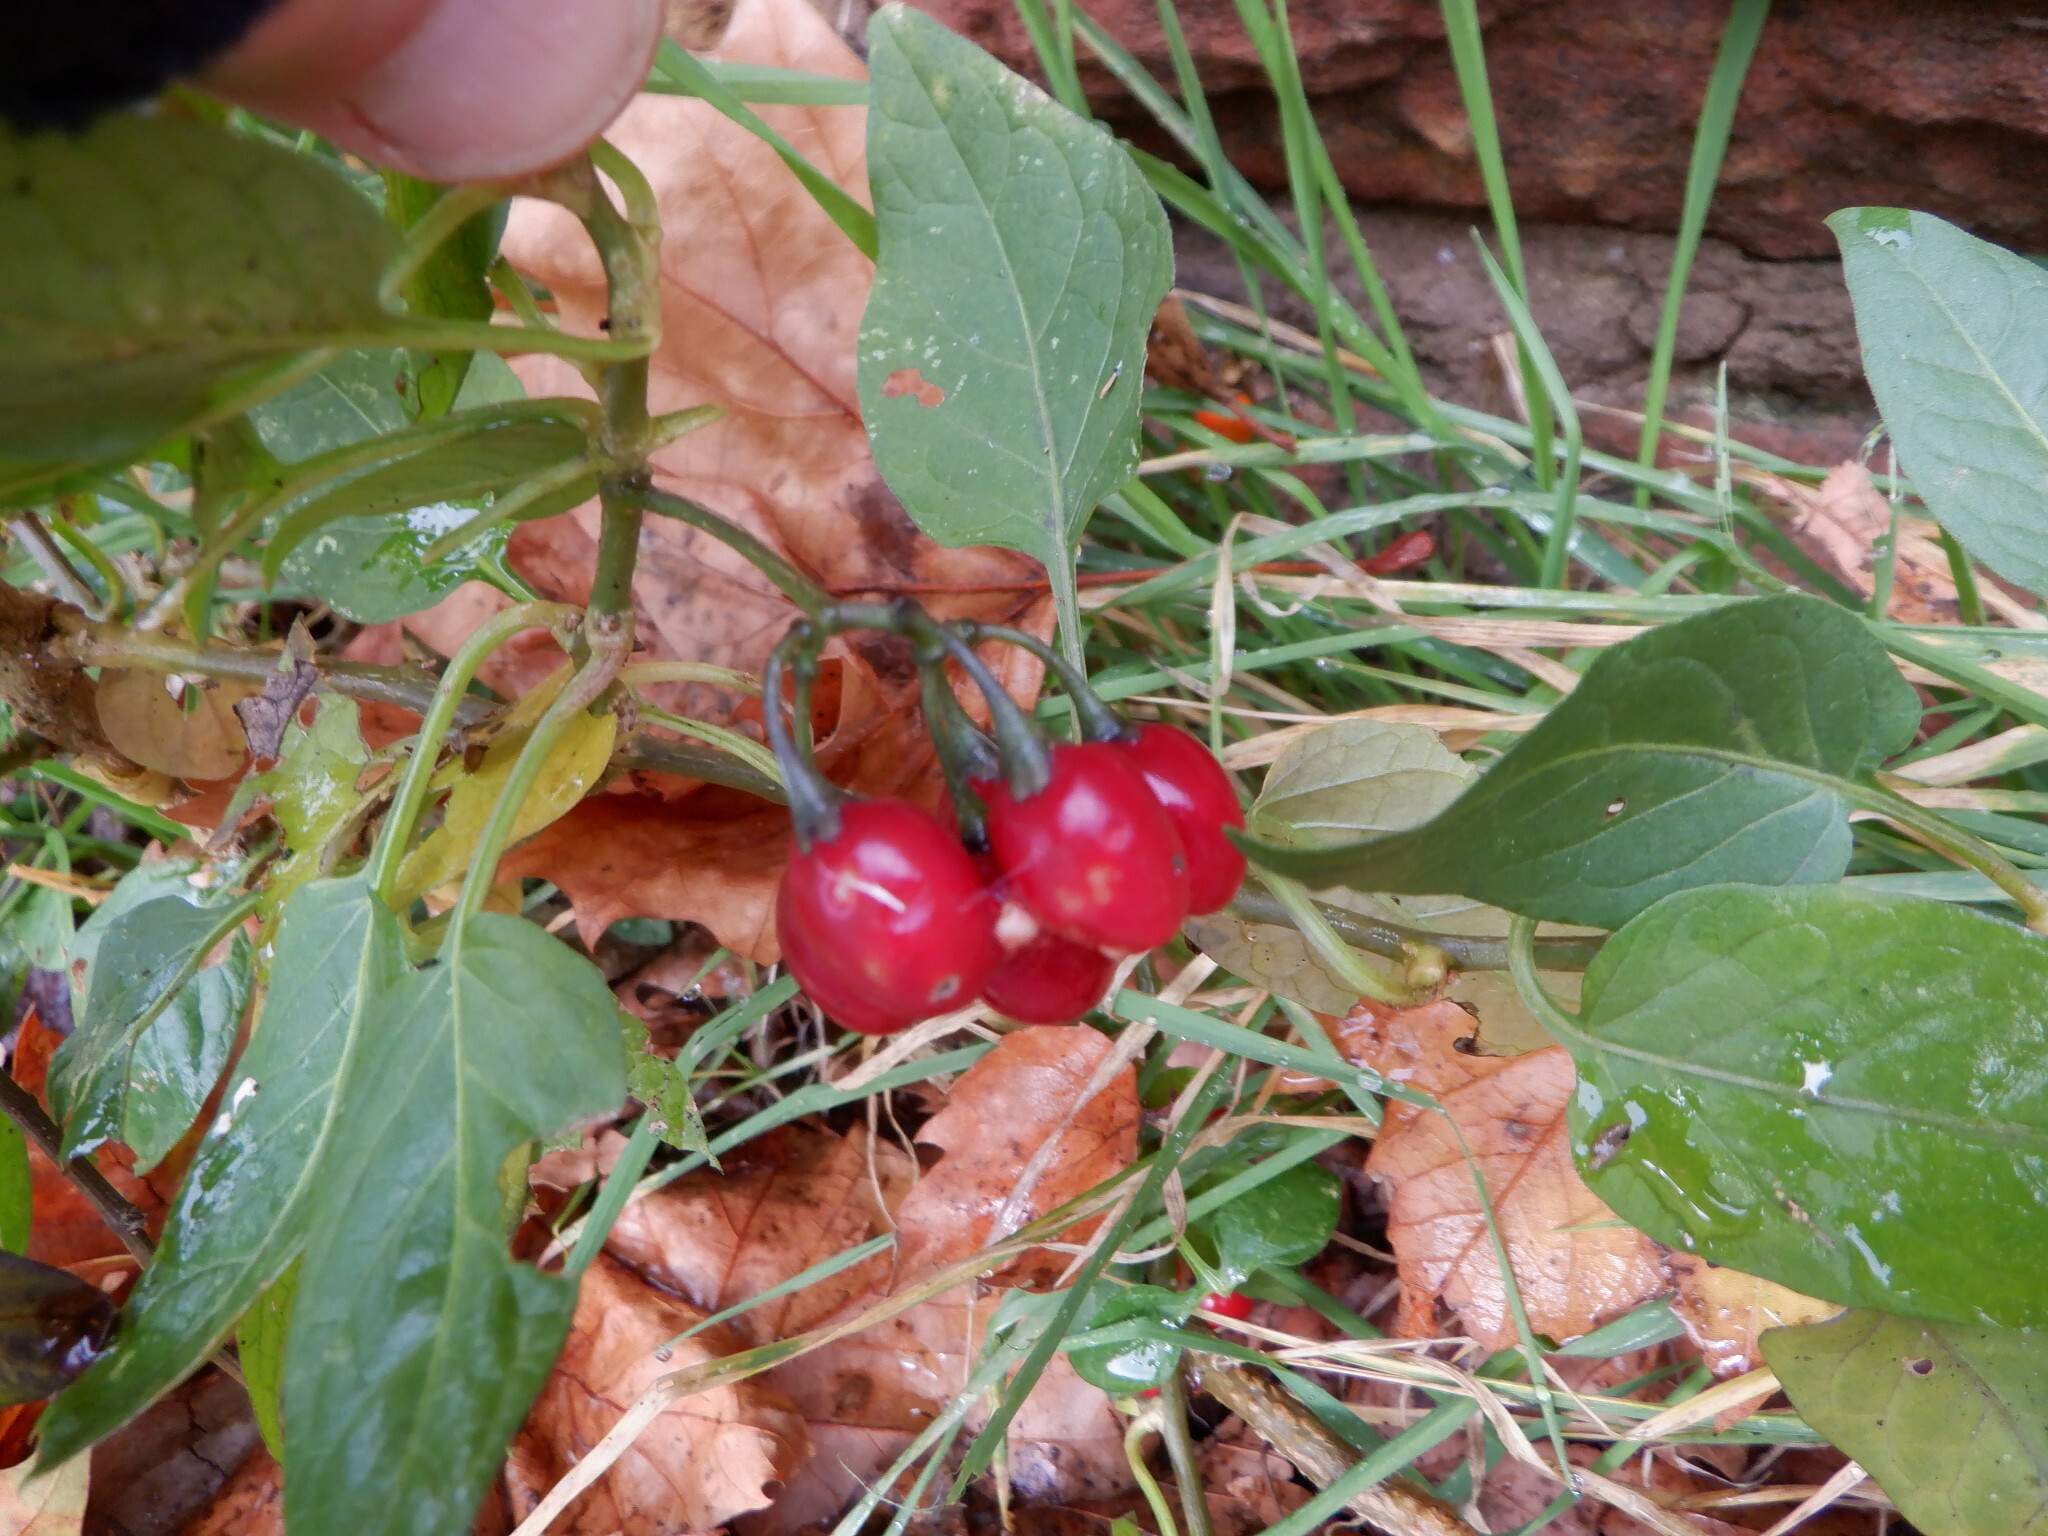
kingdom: Plantae
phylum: Tracheophyta
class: Magnoliopsida
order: Solanales
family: Solanaceae
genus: Solanum
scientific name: Solanum dulcamara
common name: Climbing nightshade
